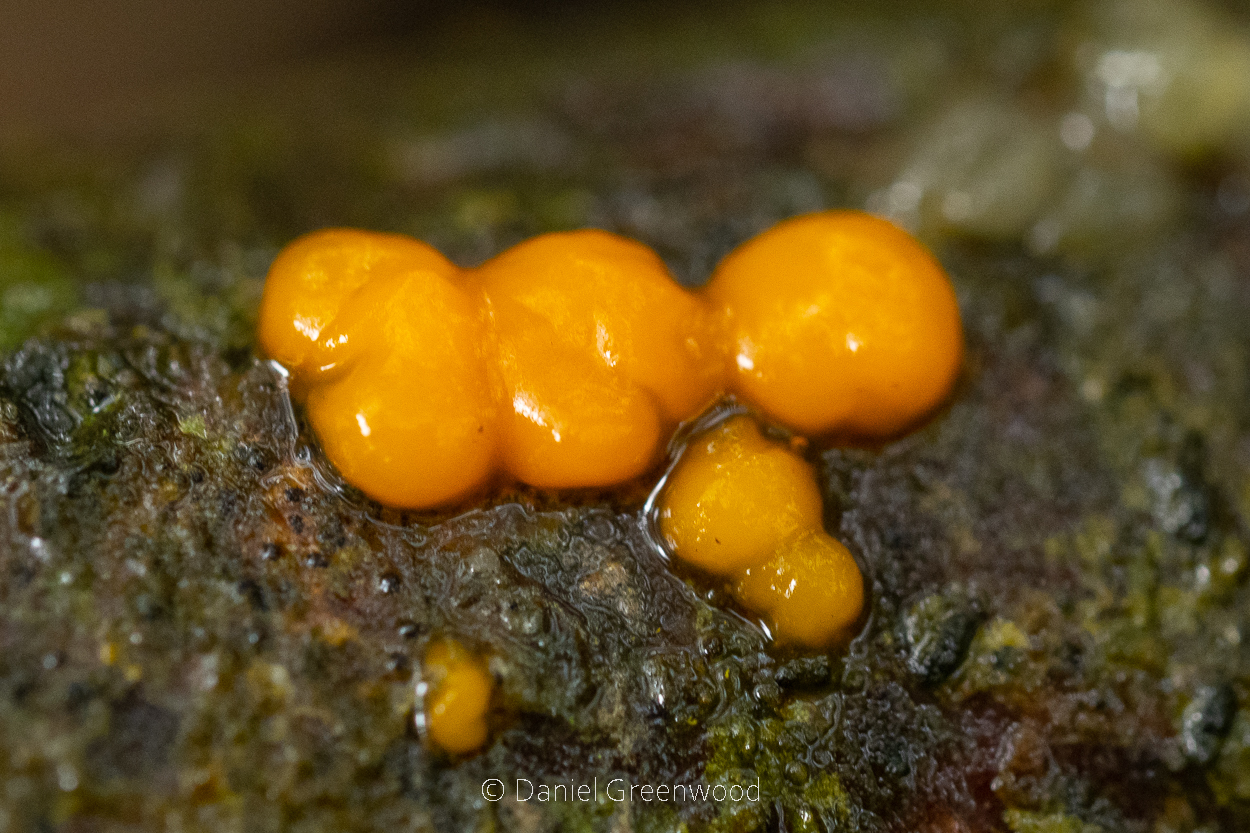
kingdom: Fungi
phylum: Basidiomycota
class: Dacrymycetes
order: Dacrymycetales
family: Dacrymycetaceae
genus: Dacrymyces
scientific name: Dacrymyces stillatus
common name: Common jelly spot
